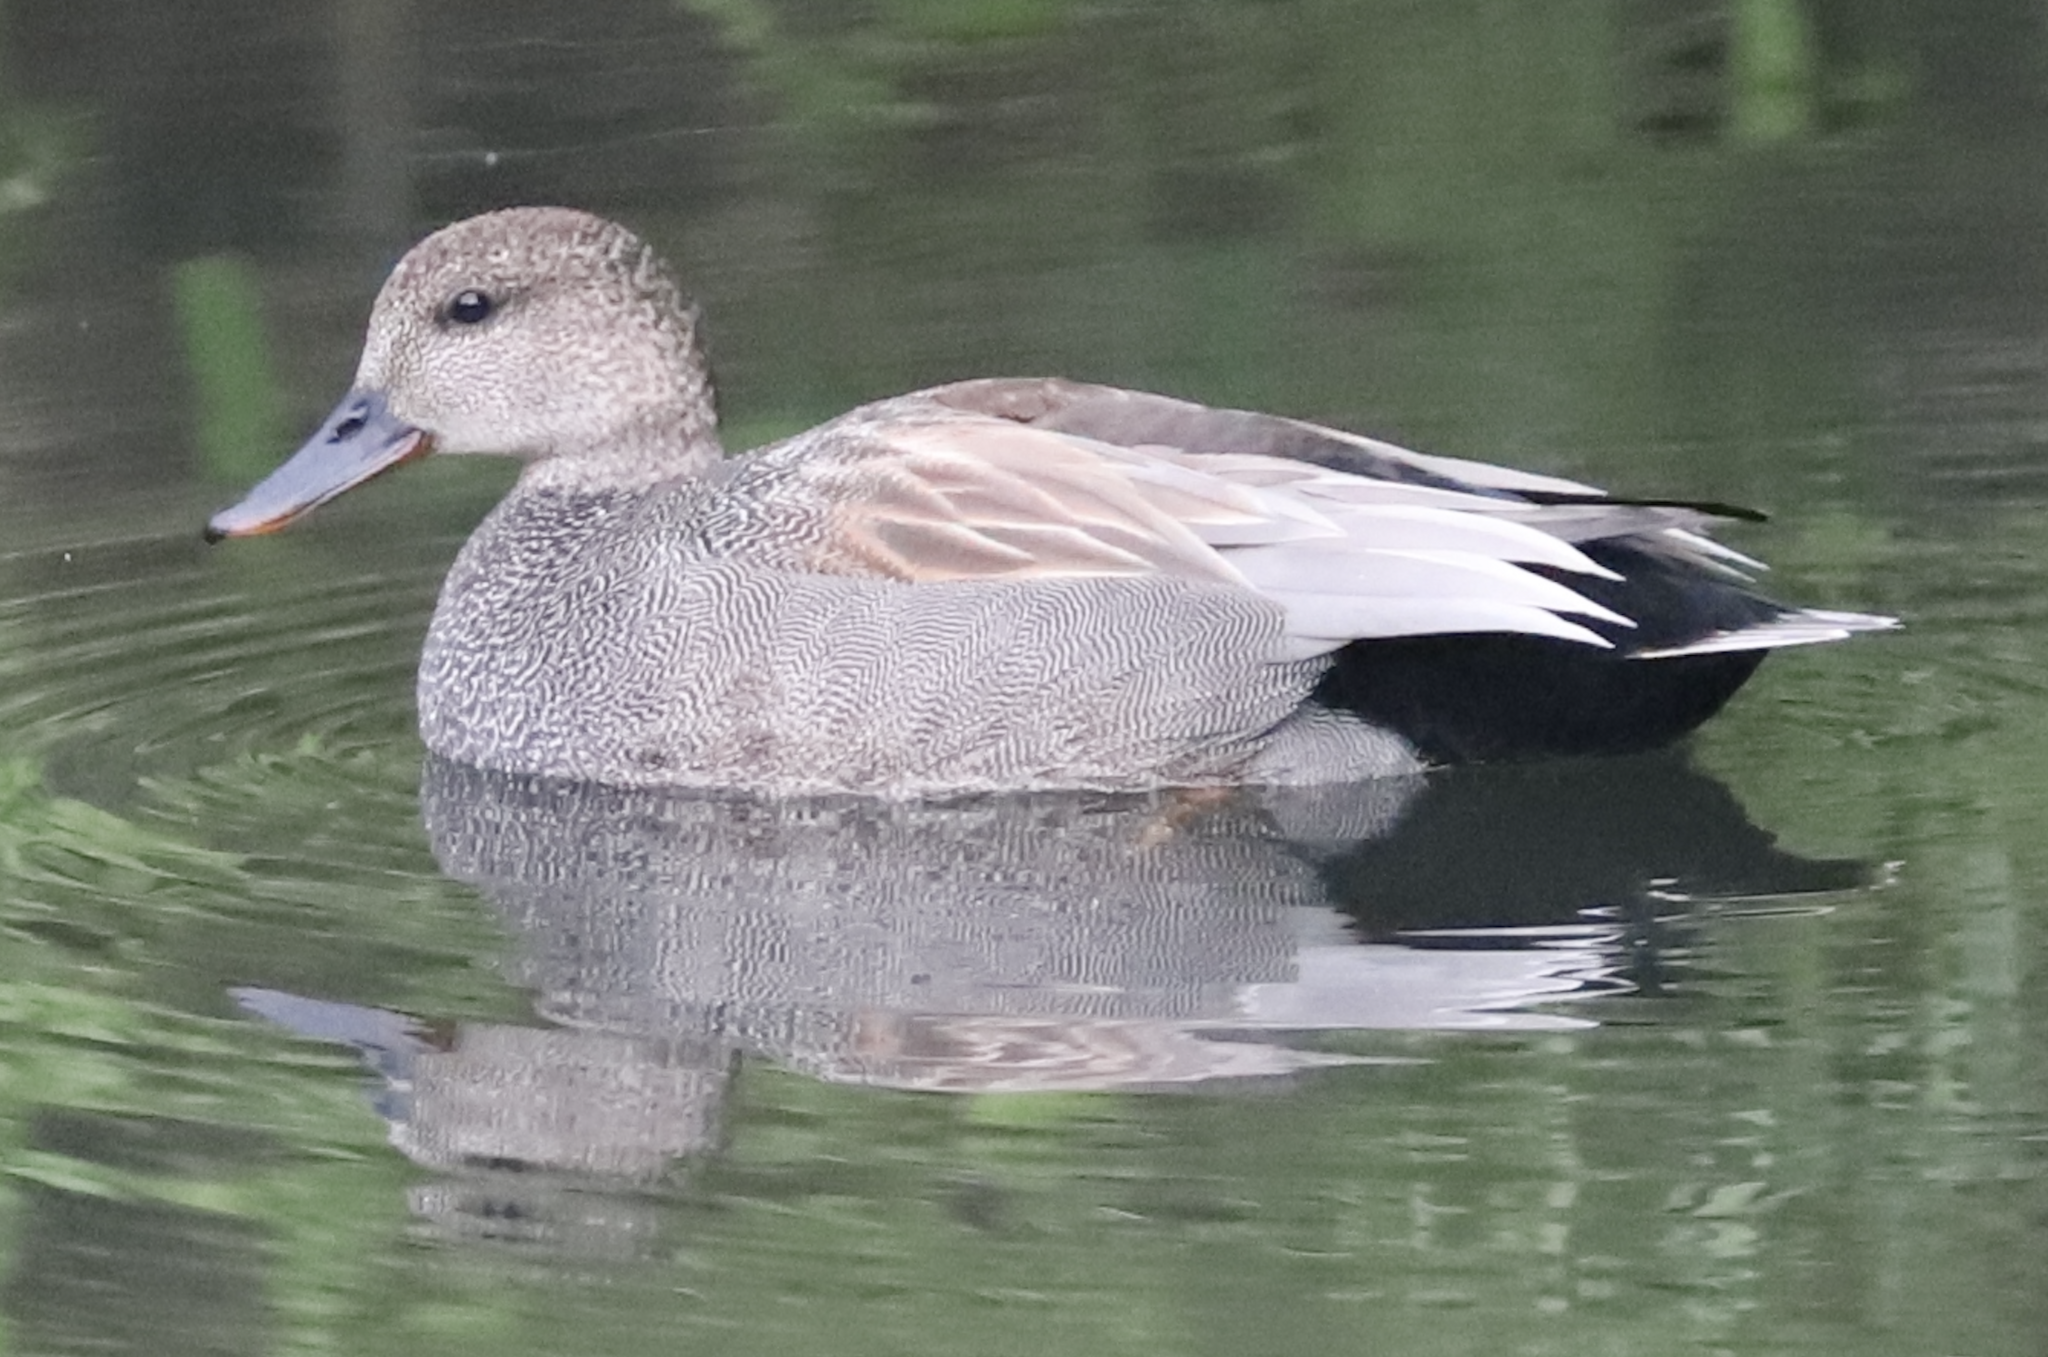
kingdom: Animalia
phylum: Chordata
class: Aves
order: Anseriformes
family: Anatidae
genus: Mareca
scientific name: Mareca strepera
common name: Gadwall
